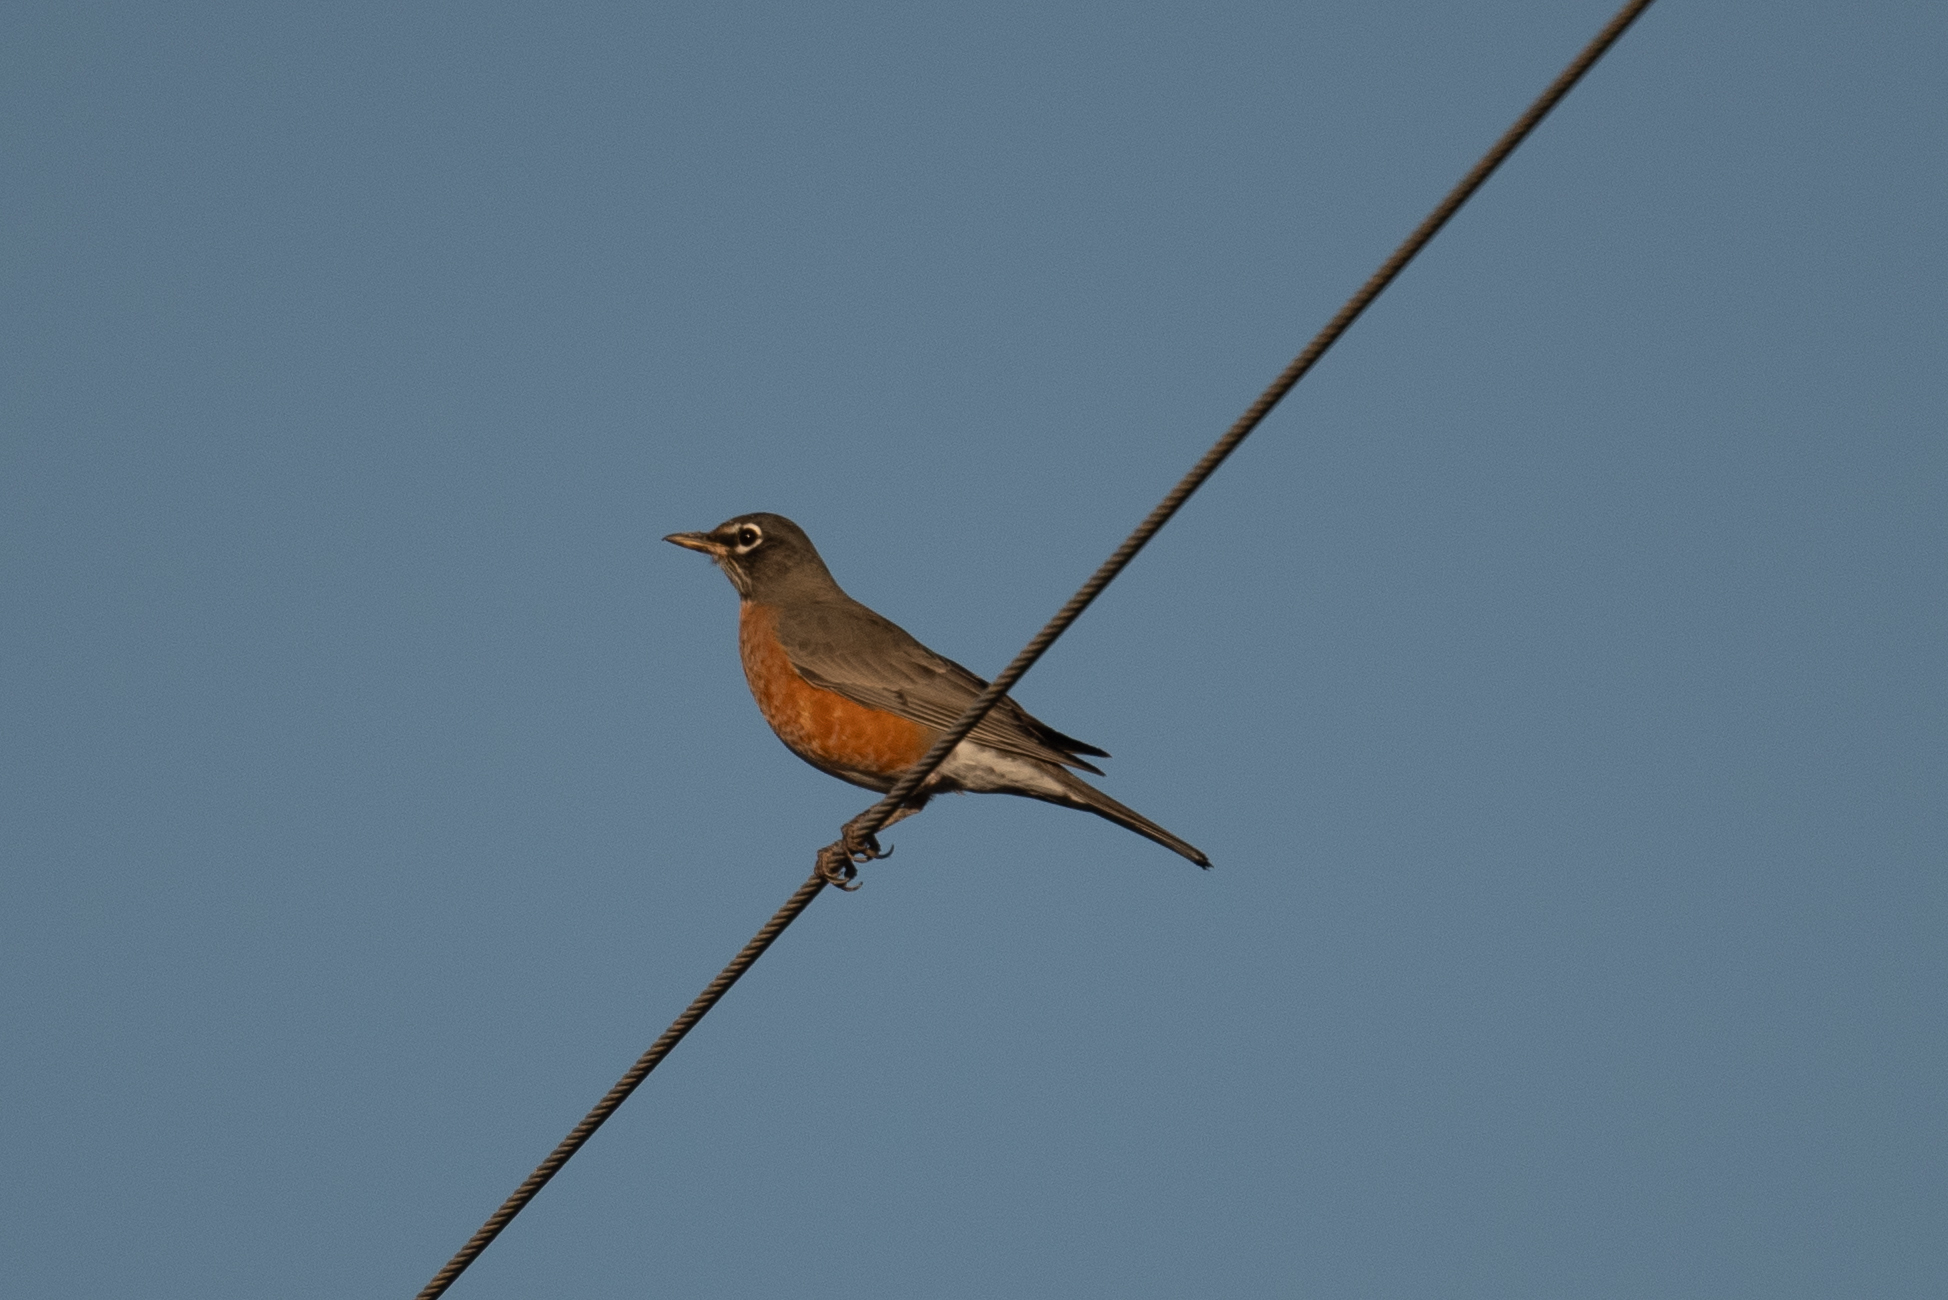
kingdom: Animalia
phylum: Chordata
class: Aves
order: Passeriformes
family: Turdidae
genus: Turdus
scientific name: Turdus migratorius
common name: American robin
